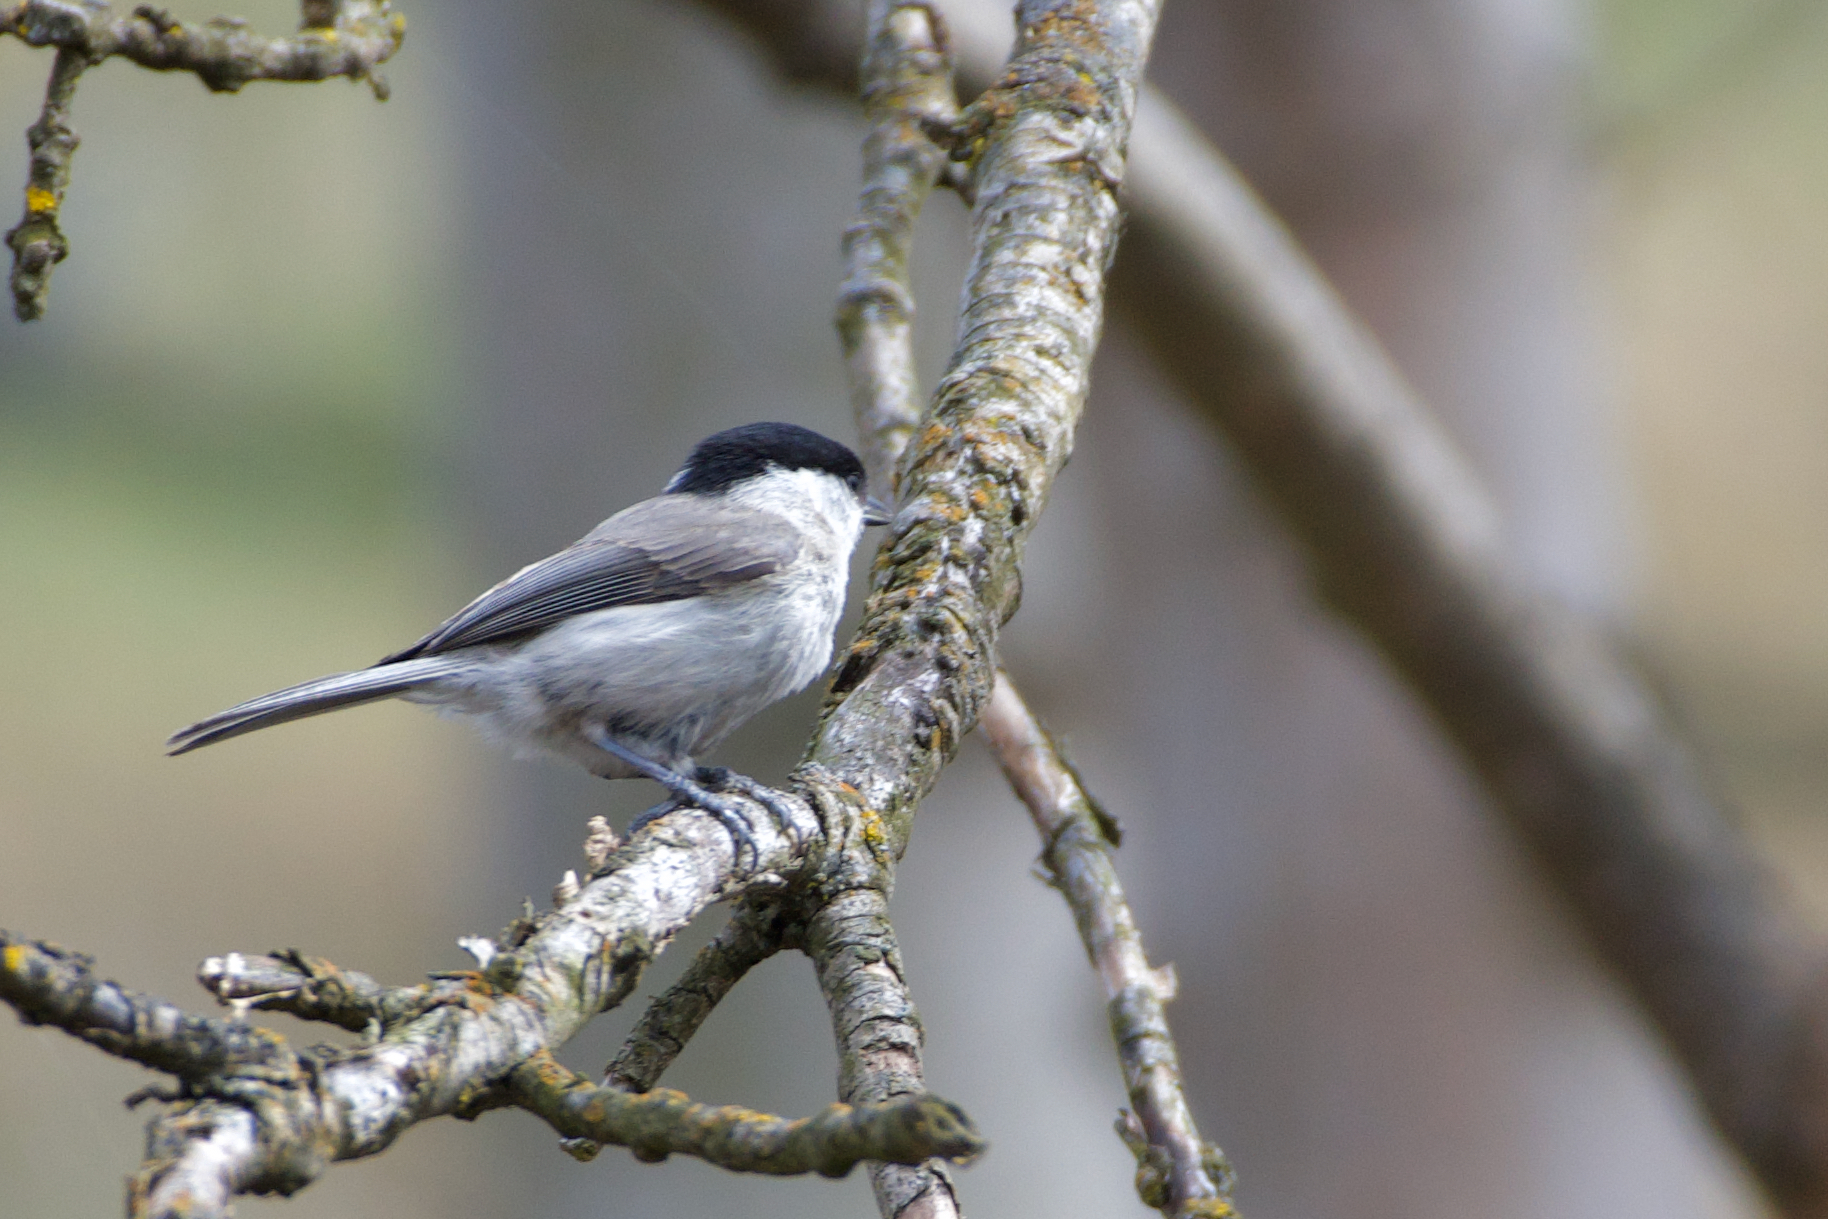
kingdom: Animalia
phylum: Chordata
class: Aves
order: Passeriformes
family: Paridae
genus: Poecile
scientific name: Poecile palustris
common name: Marsh tit
